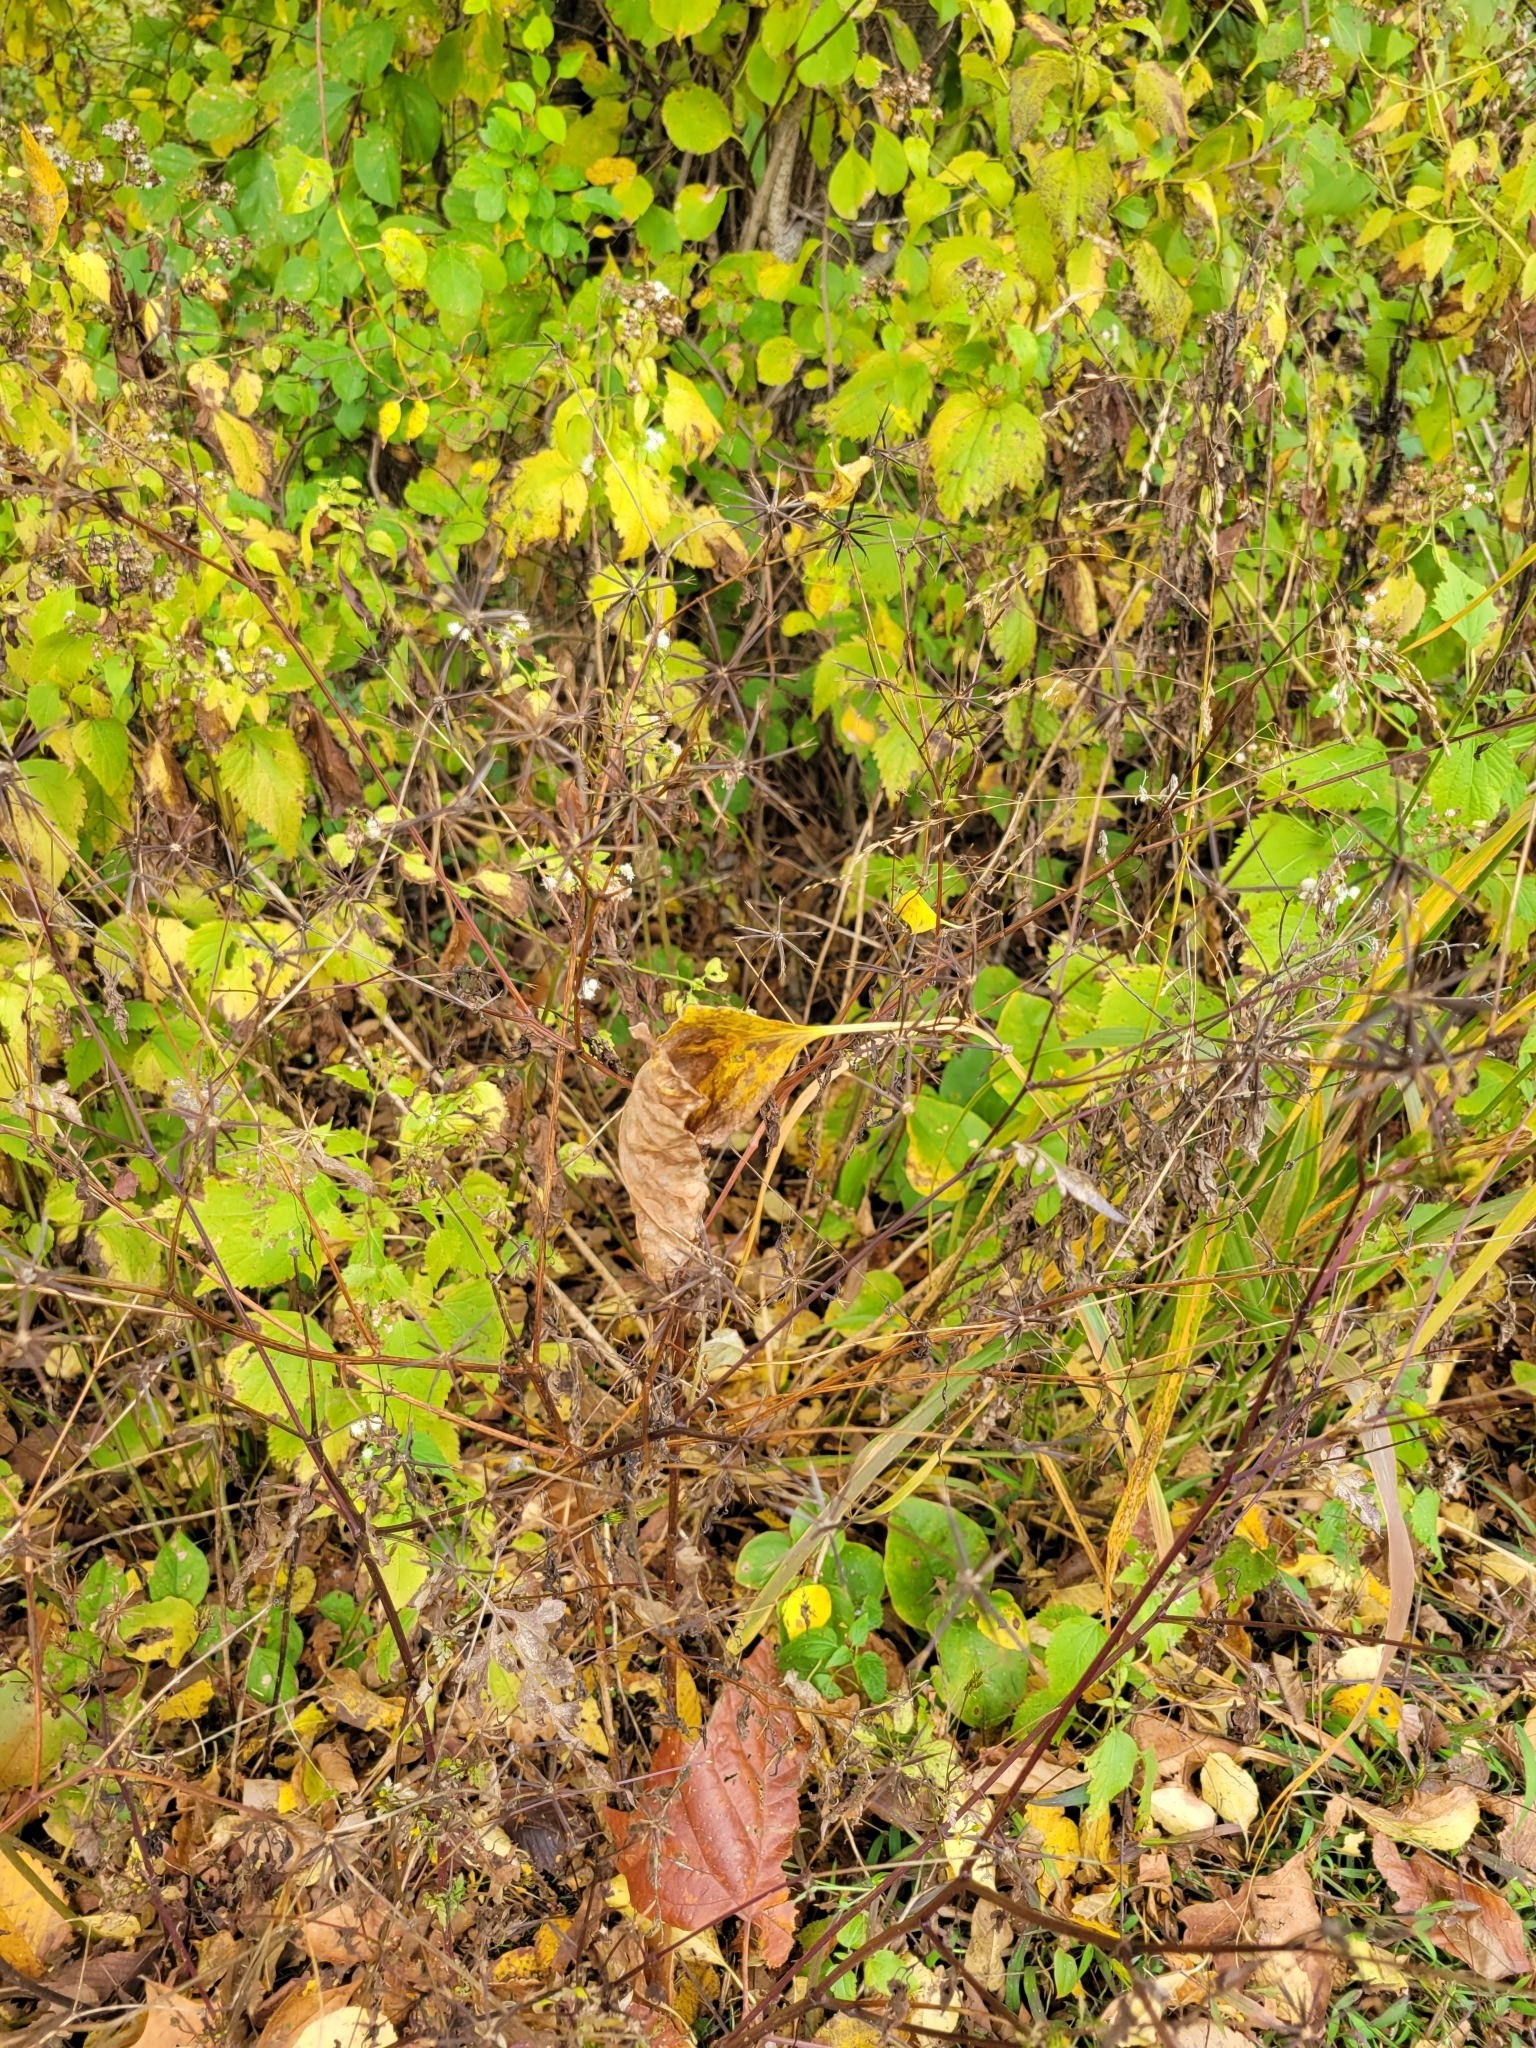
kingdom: Plantae
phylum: Tracheophyta
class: Magnoliopsida
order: Asterales
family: Asteraceae
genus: Bidens
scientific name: Bidens bipinnata
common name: Spanish-needles
